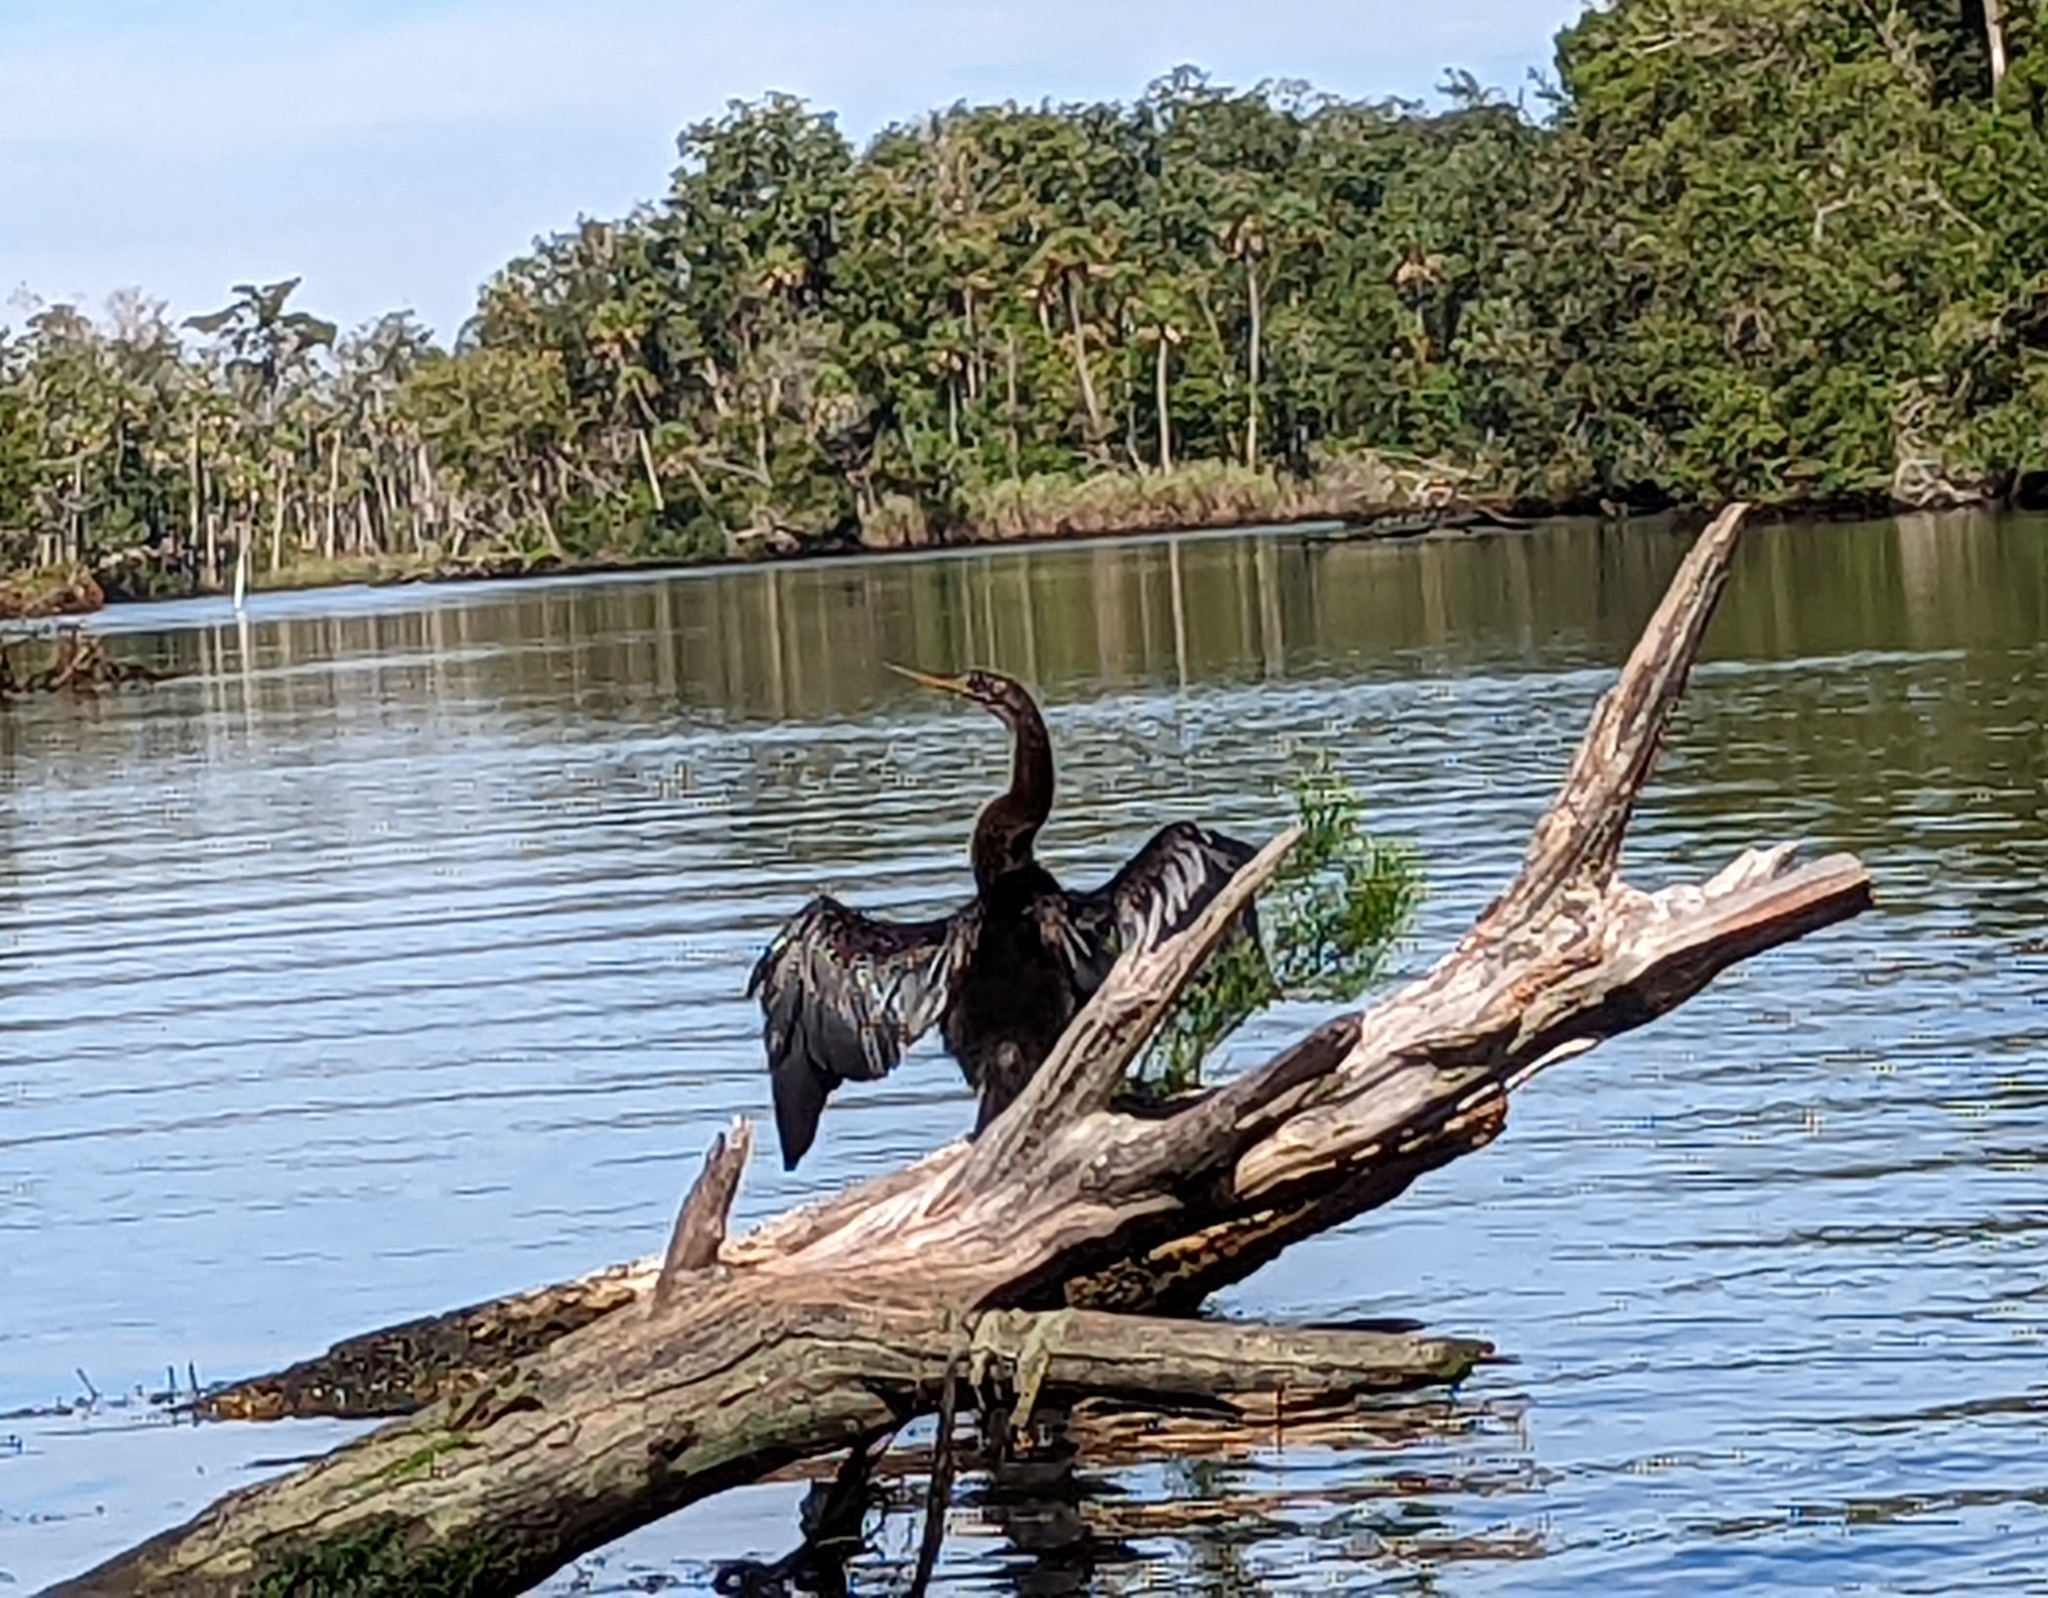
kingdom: Animalia
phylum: Chordata
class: Aves
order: Suliformes
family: Anhingidae
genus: Anhinga
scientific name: Anhinga anhinga
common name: Anhinga
